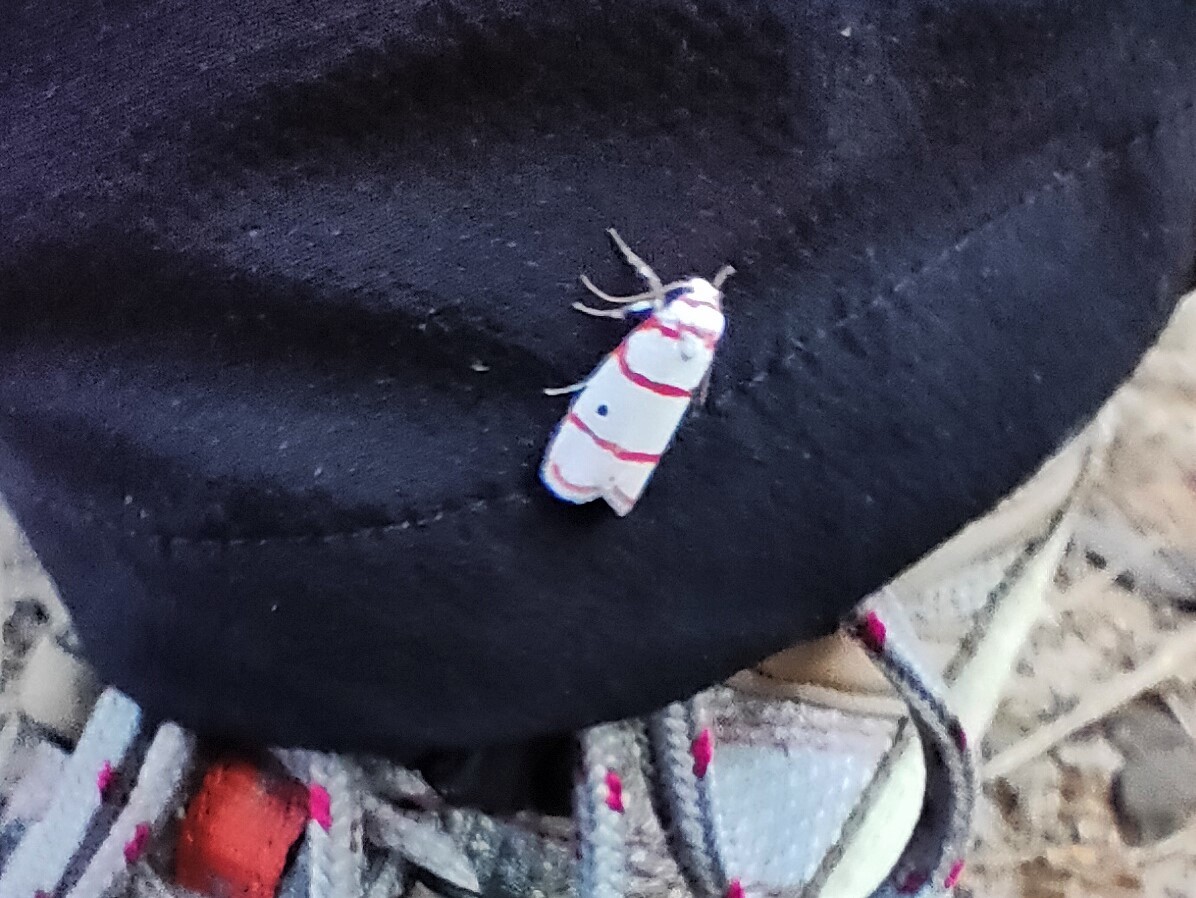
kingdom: Animalia
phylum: Arthropoda
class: Insecta
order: Lepidoptera
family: Erebidae
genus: Cyana
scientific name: Cyana perornata
